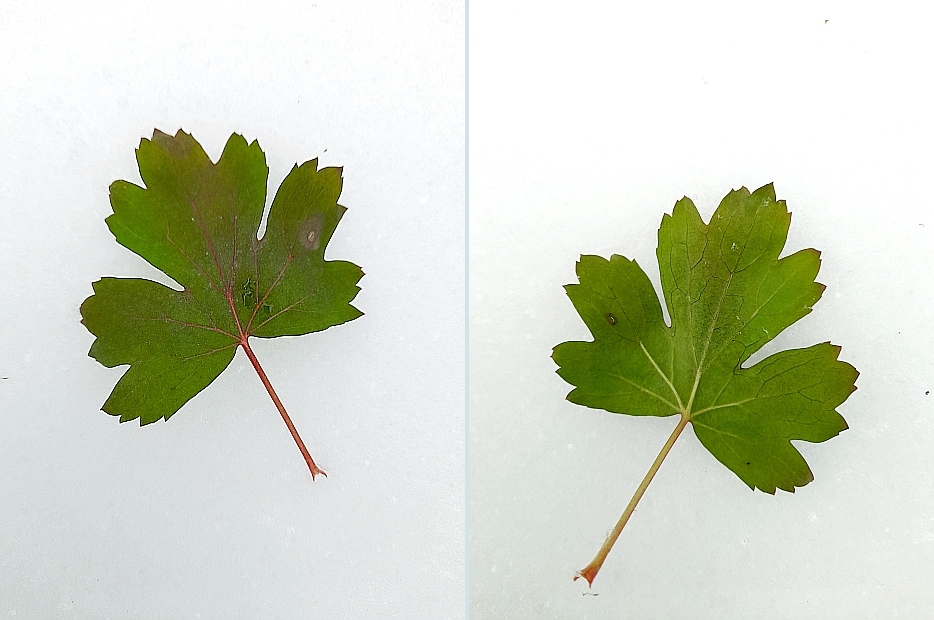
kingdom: Plantae
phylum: Tracheophyta
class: Magnoliopsida
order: Saxifragales
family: Grossulariaceae
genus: Ribes
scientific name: Ribes aureum
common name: Golden currant
